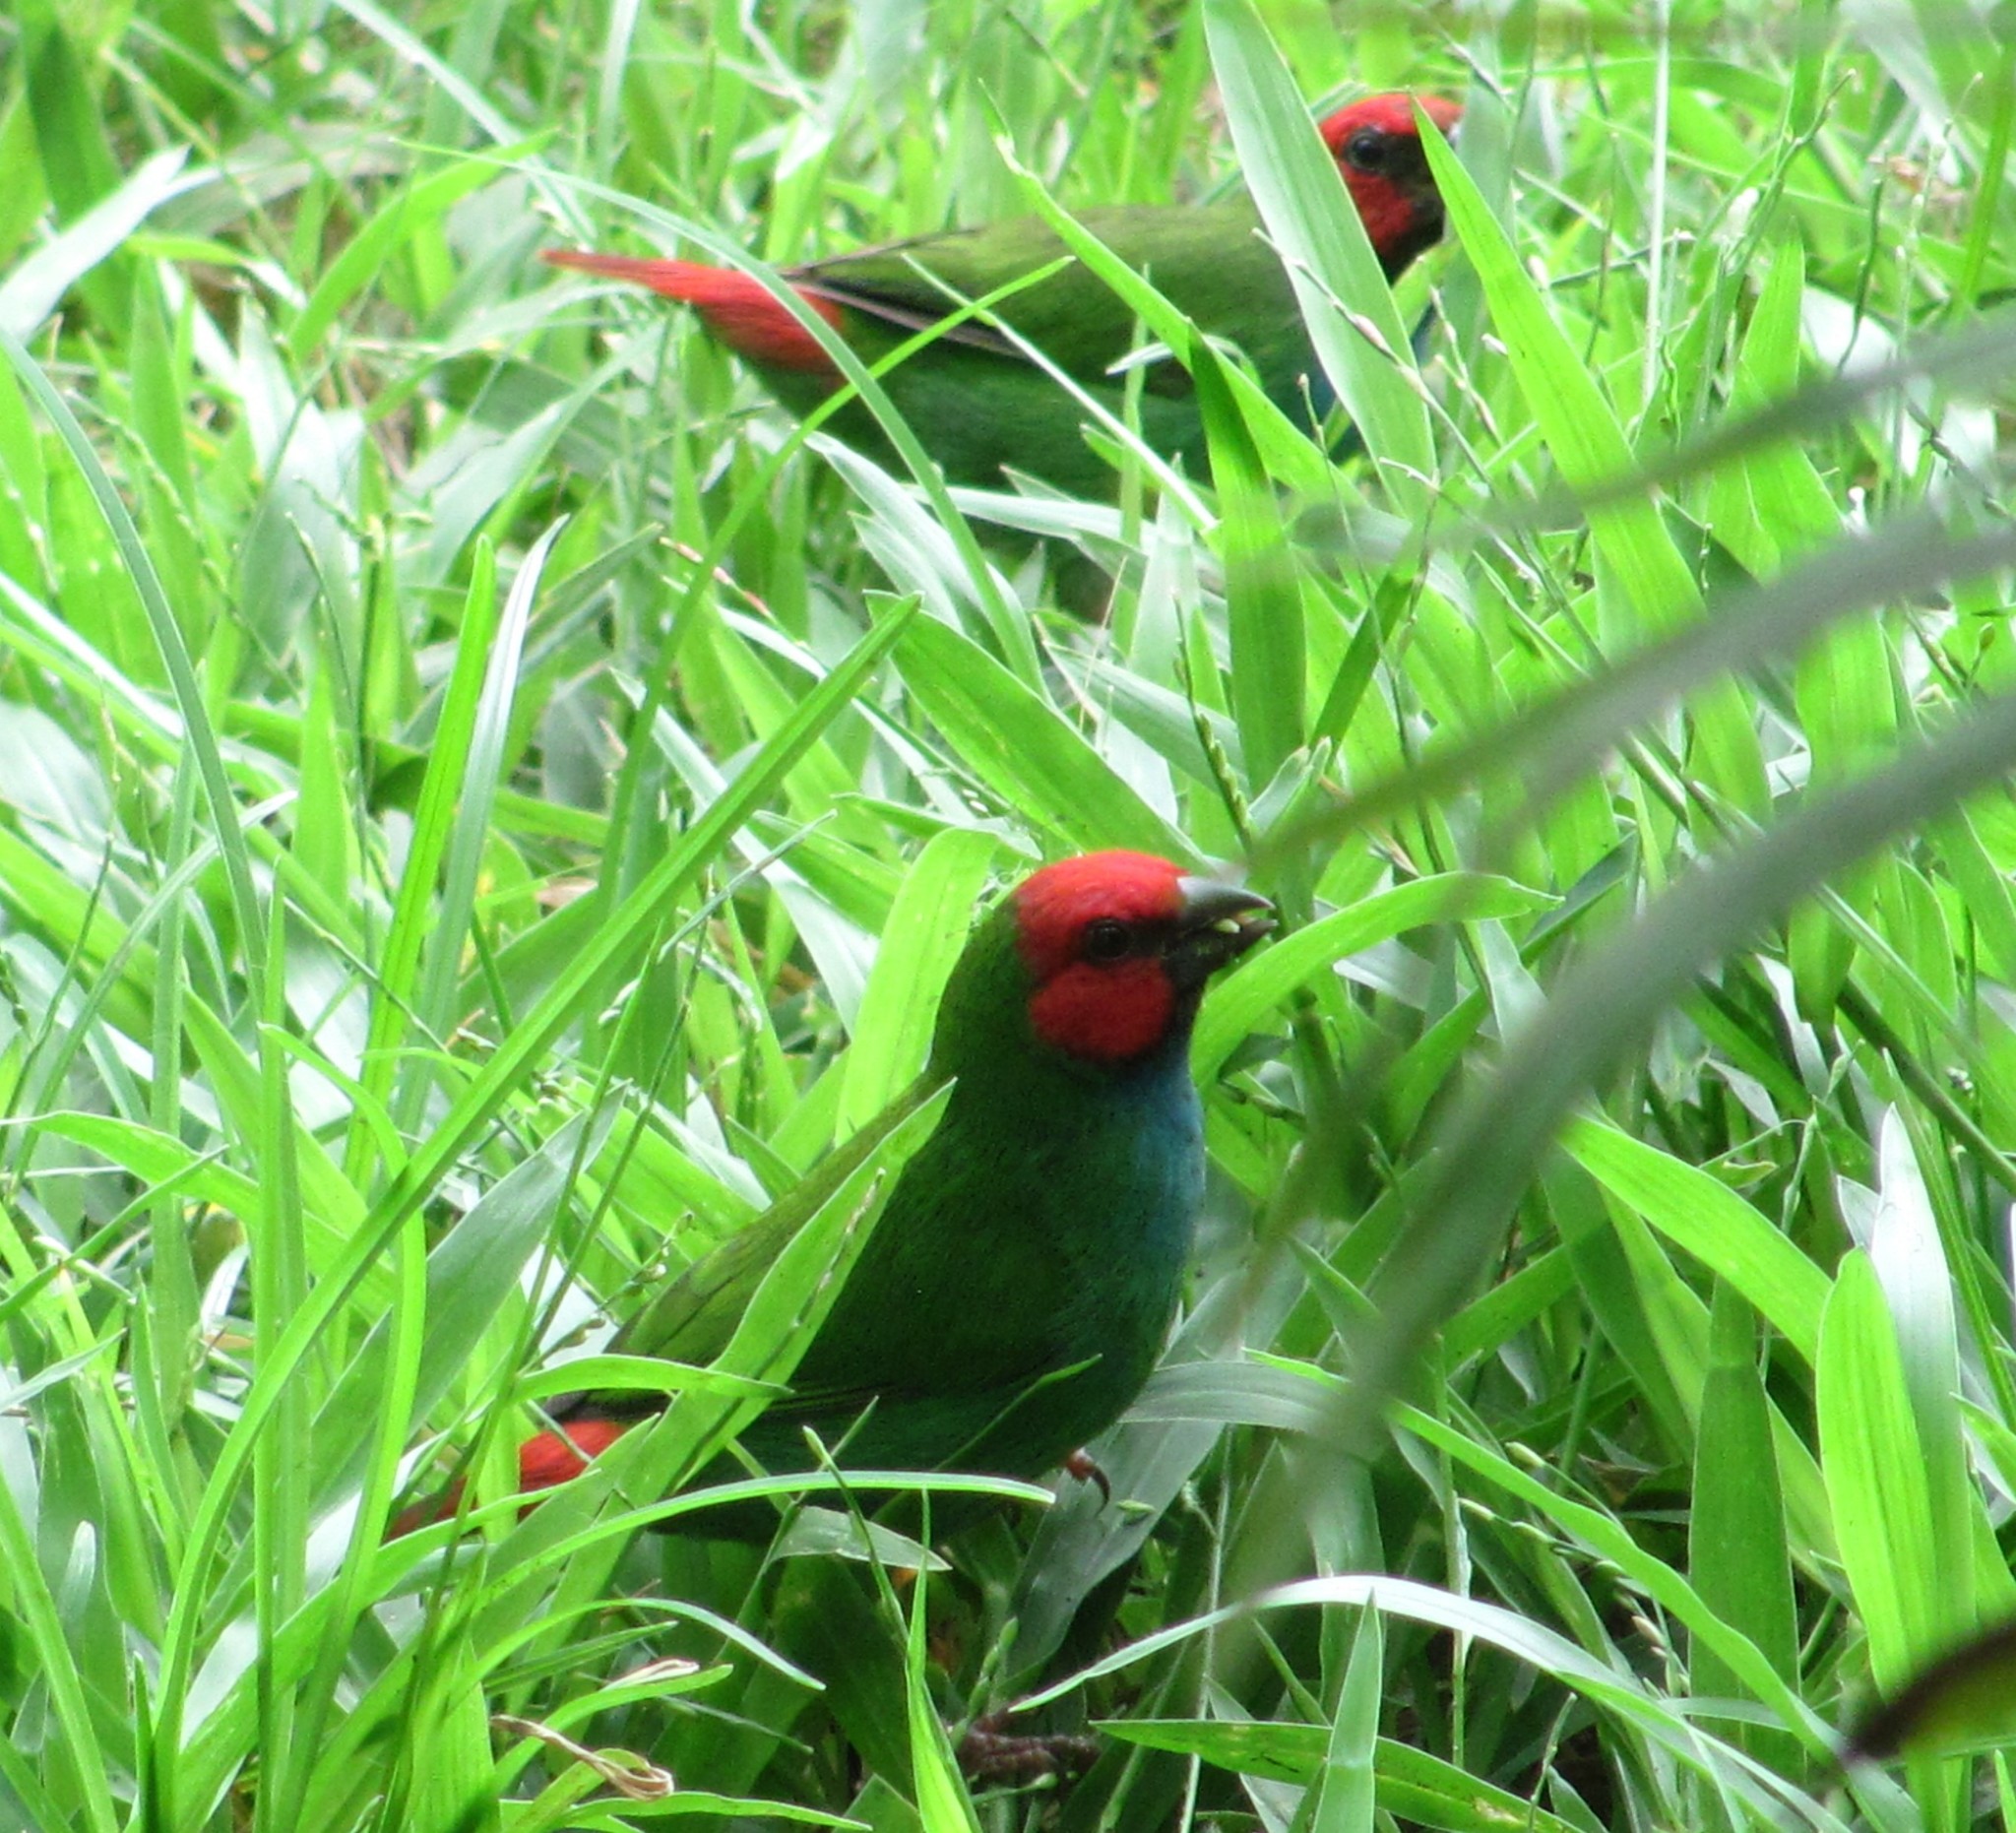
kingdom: Animalia
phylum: Chordata
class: Aves
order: Passeriformes
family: Estrildidae
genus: Erythrura
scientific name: Erythrura pealii
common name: Fiji parrotfinch
